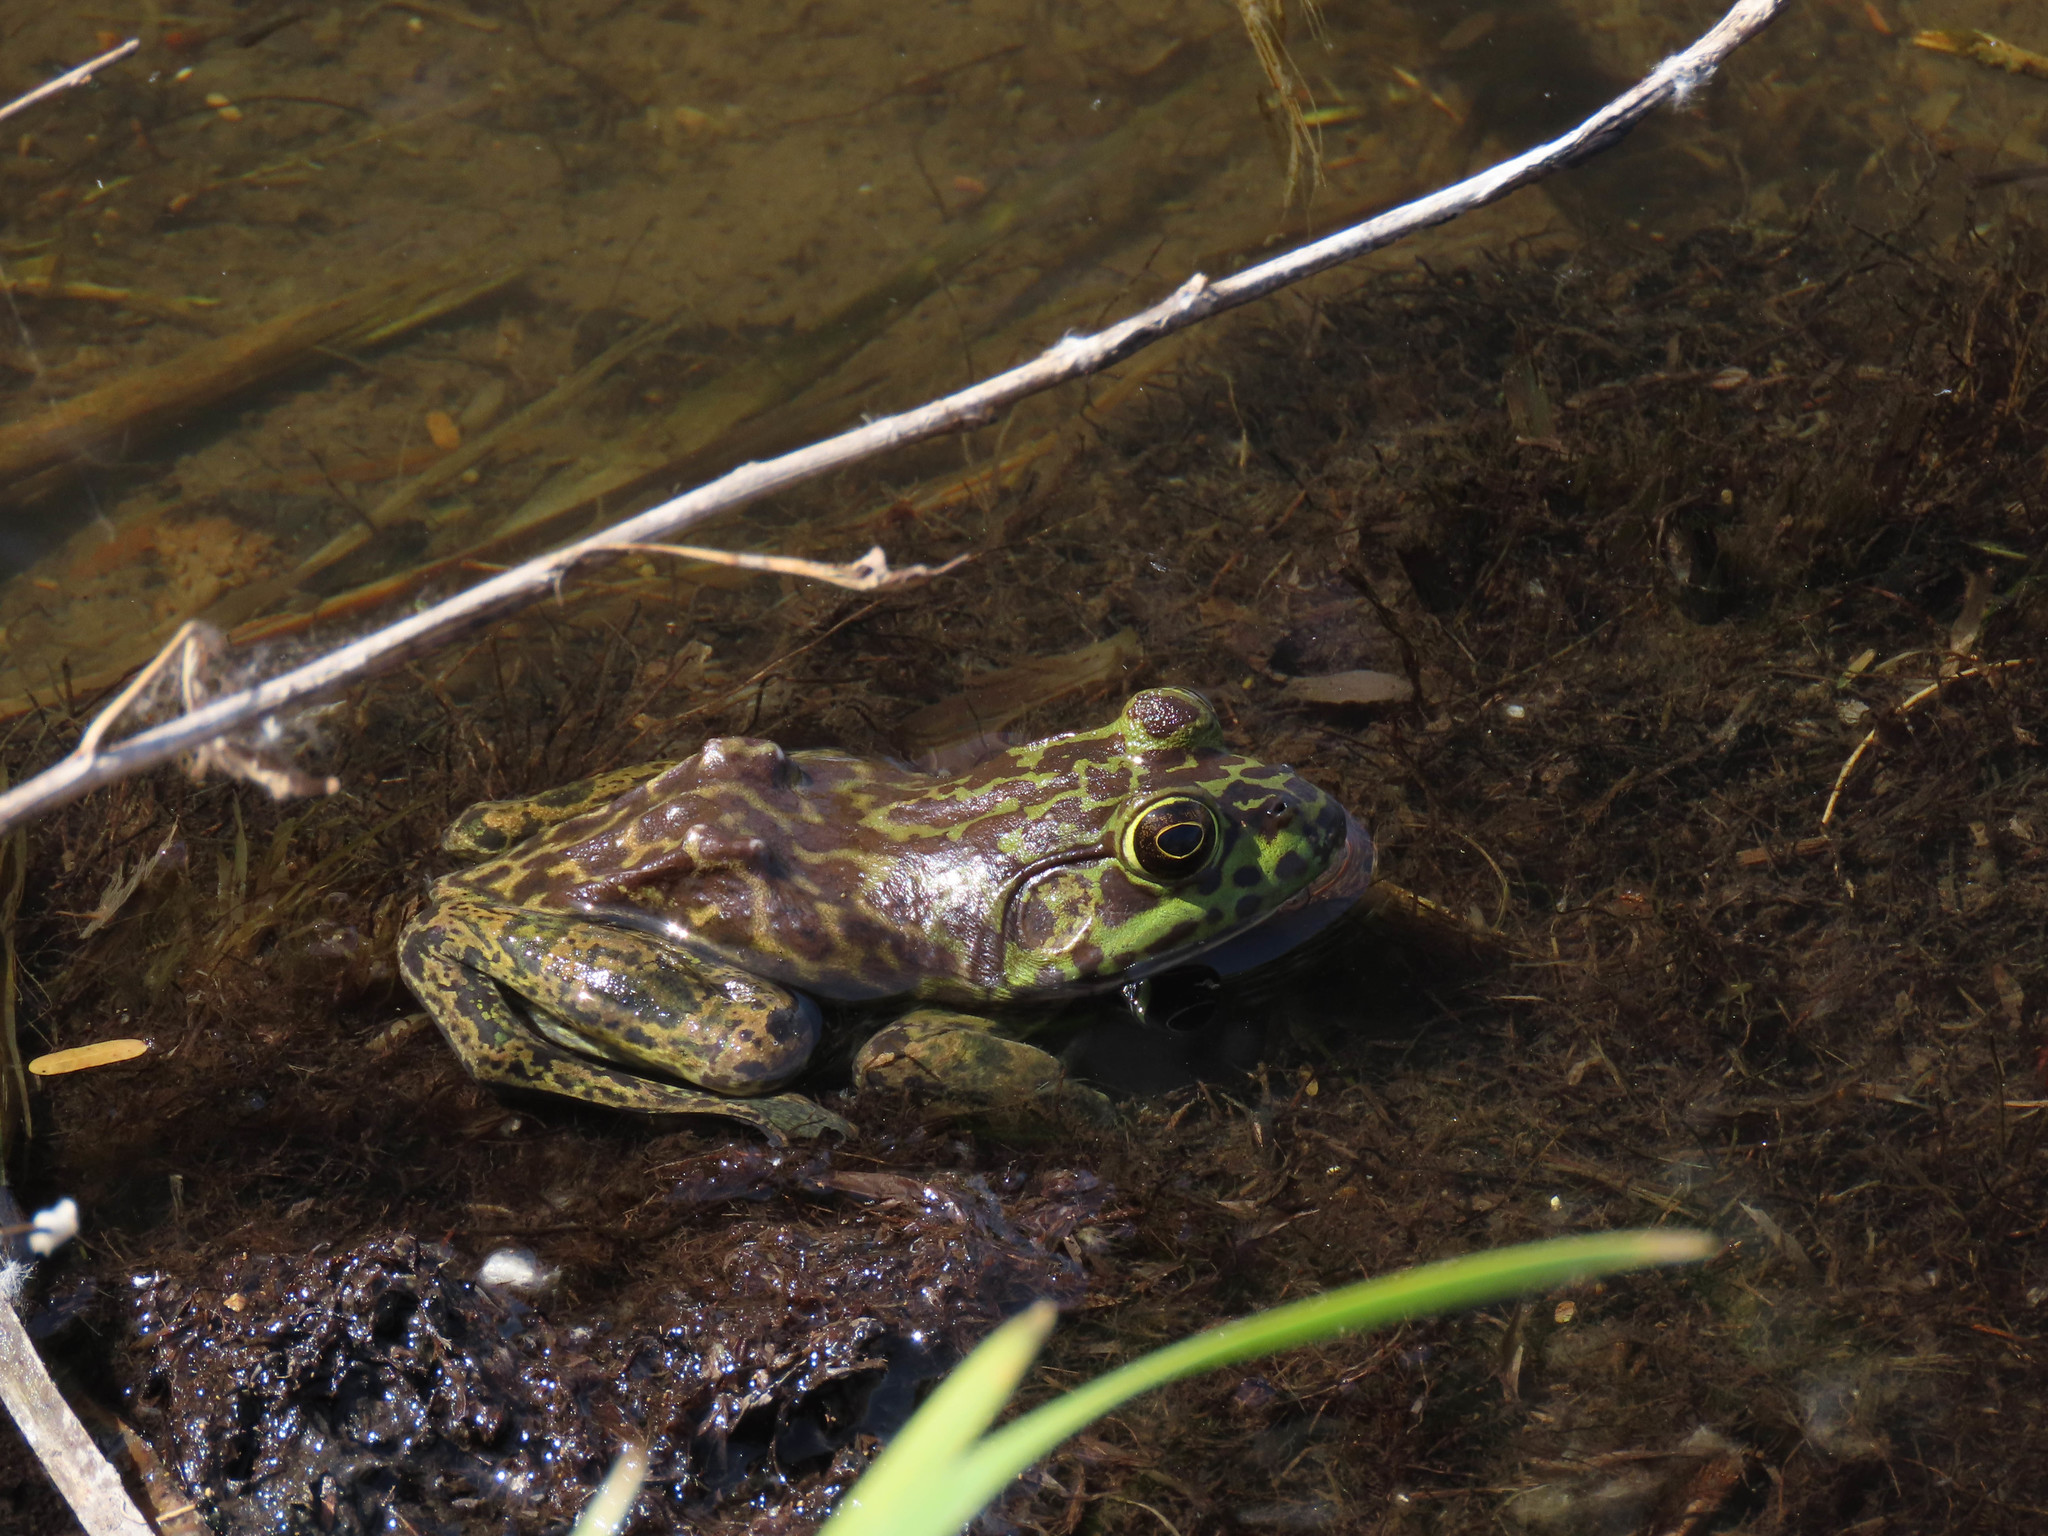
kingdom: Animalia
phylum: Chordata
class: Amphibia
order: Anura
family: Ranidae
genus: Lithobates
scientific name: Lithobates catesbeianus
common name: American bullfrog
